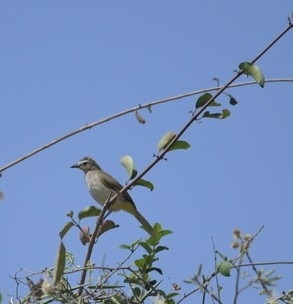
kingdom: Animalia
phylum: Chordata
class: Aves
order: Passeriformes
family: Pycnonotidae
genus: Pycnonotus
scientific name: Pycnonotus luteolus
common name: White-browed bulbul
